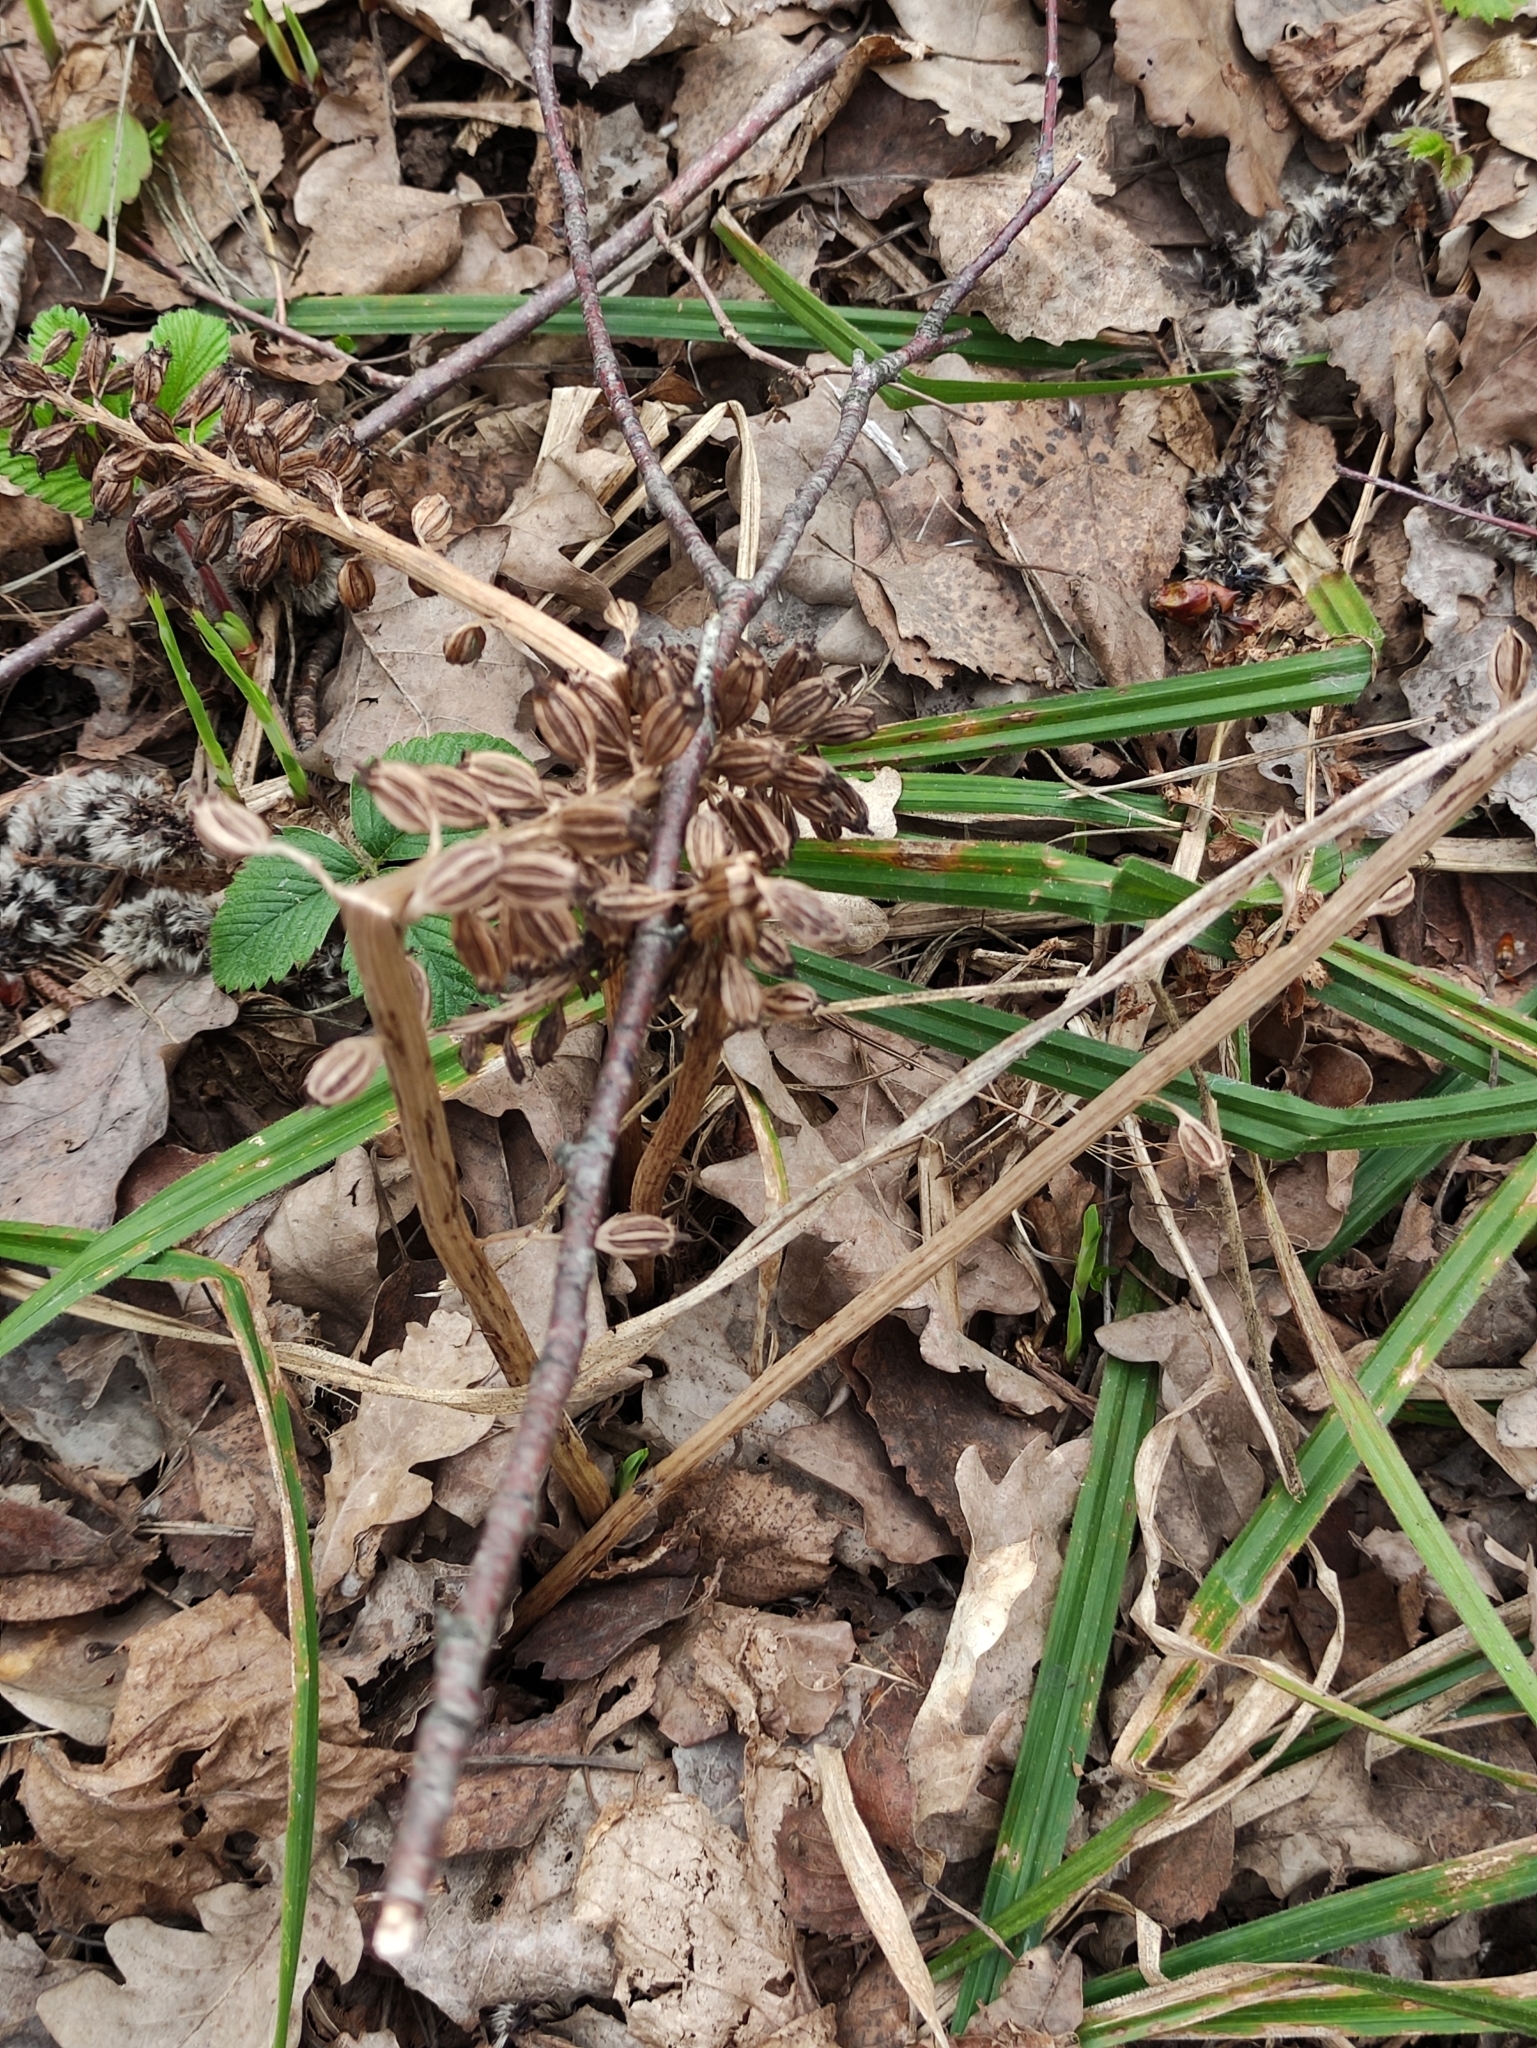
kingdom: Plantae
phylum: Tracheophyta
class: Liliopsida
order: Asparagales
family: Orchidaceae
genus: Neottia
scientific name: Neottia nidus-avis
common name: Bird's-nest orchid
